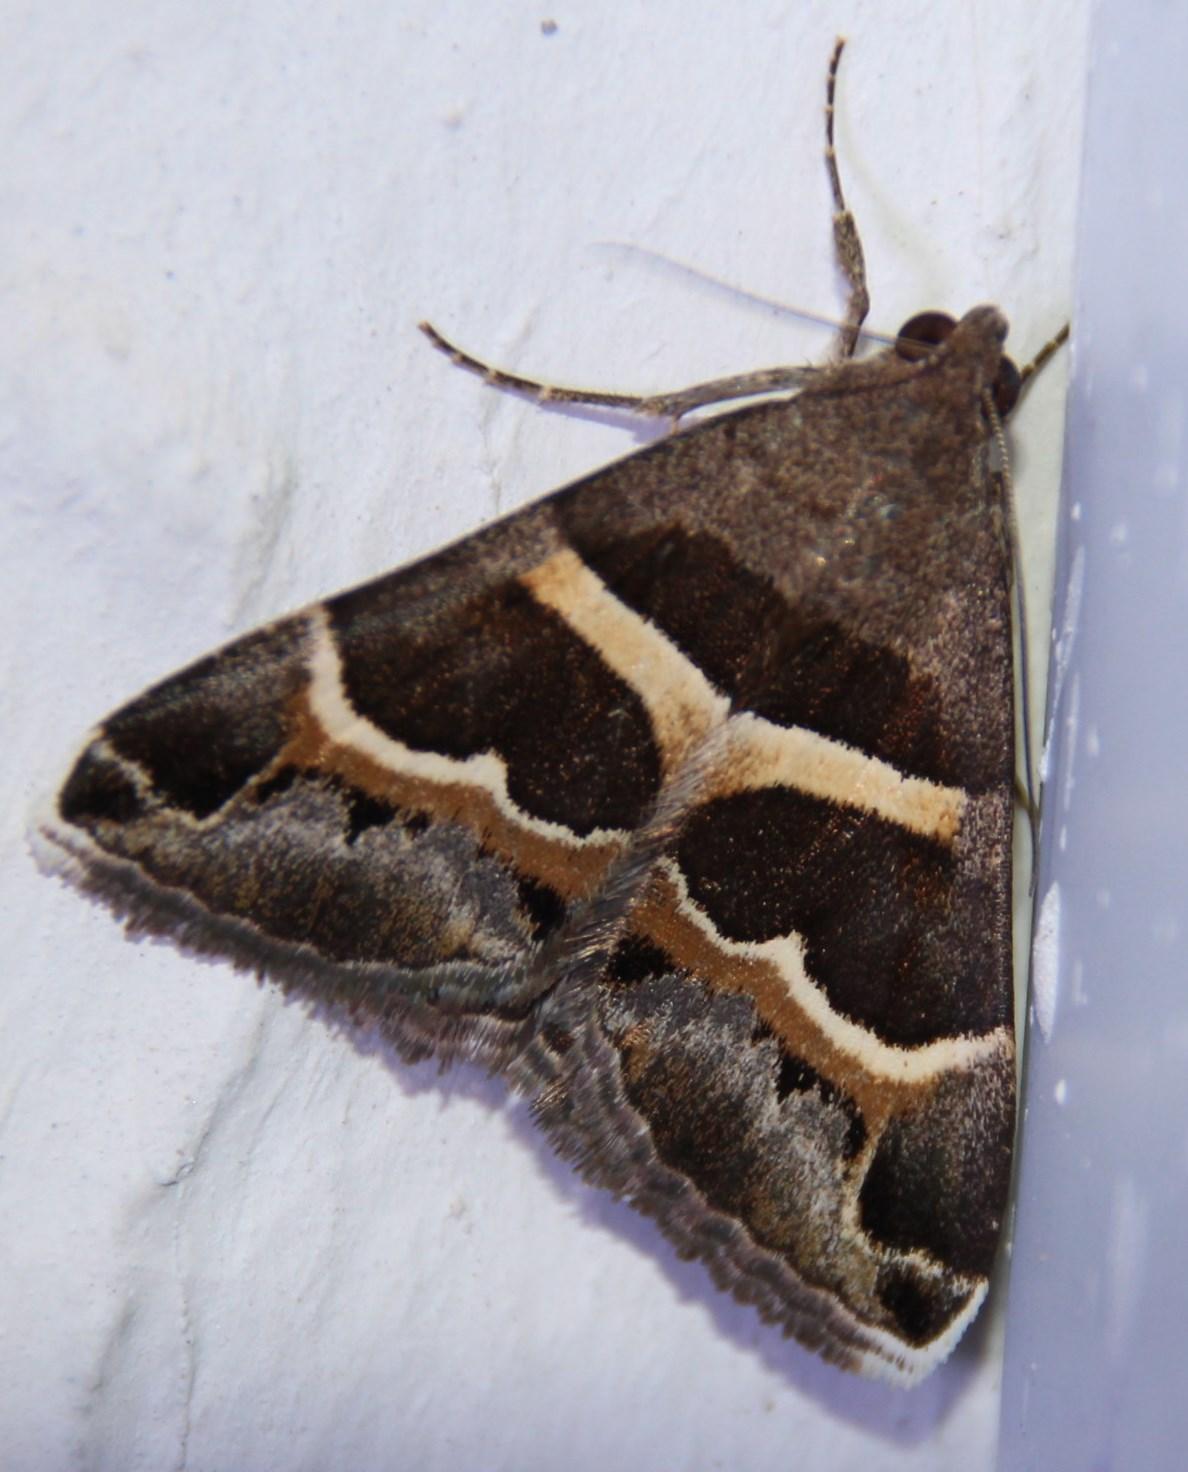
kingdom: Animalia
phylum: Arthropoda
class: Insecta
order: Lepidoptera
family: Erebidae
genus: Grammodes
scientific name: Grammodes stolida
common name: Geometrician
